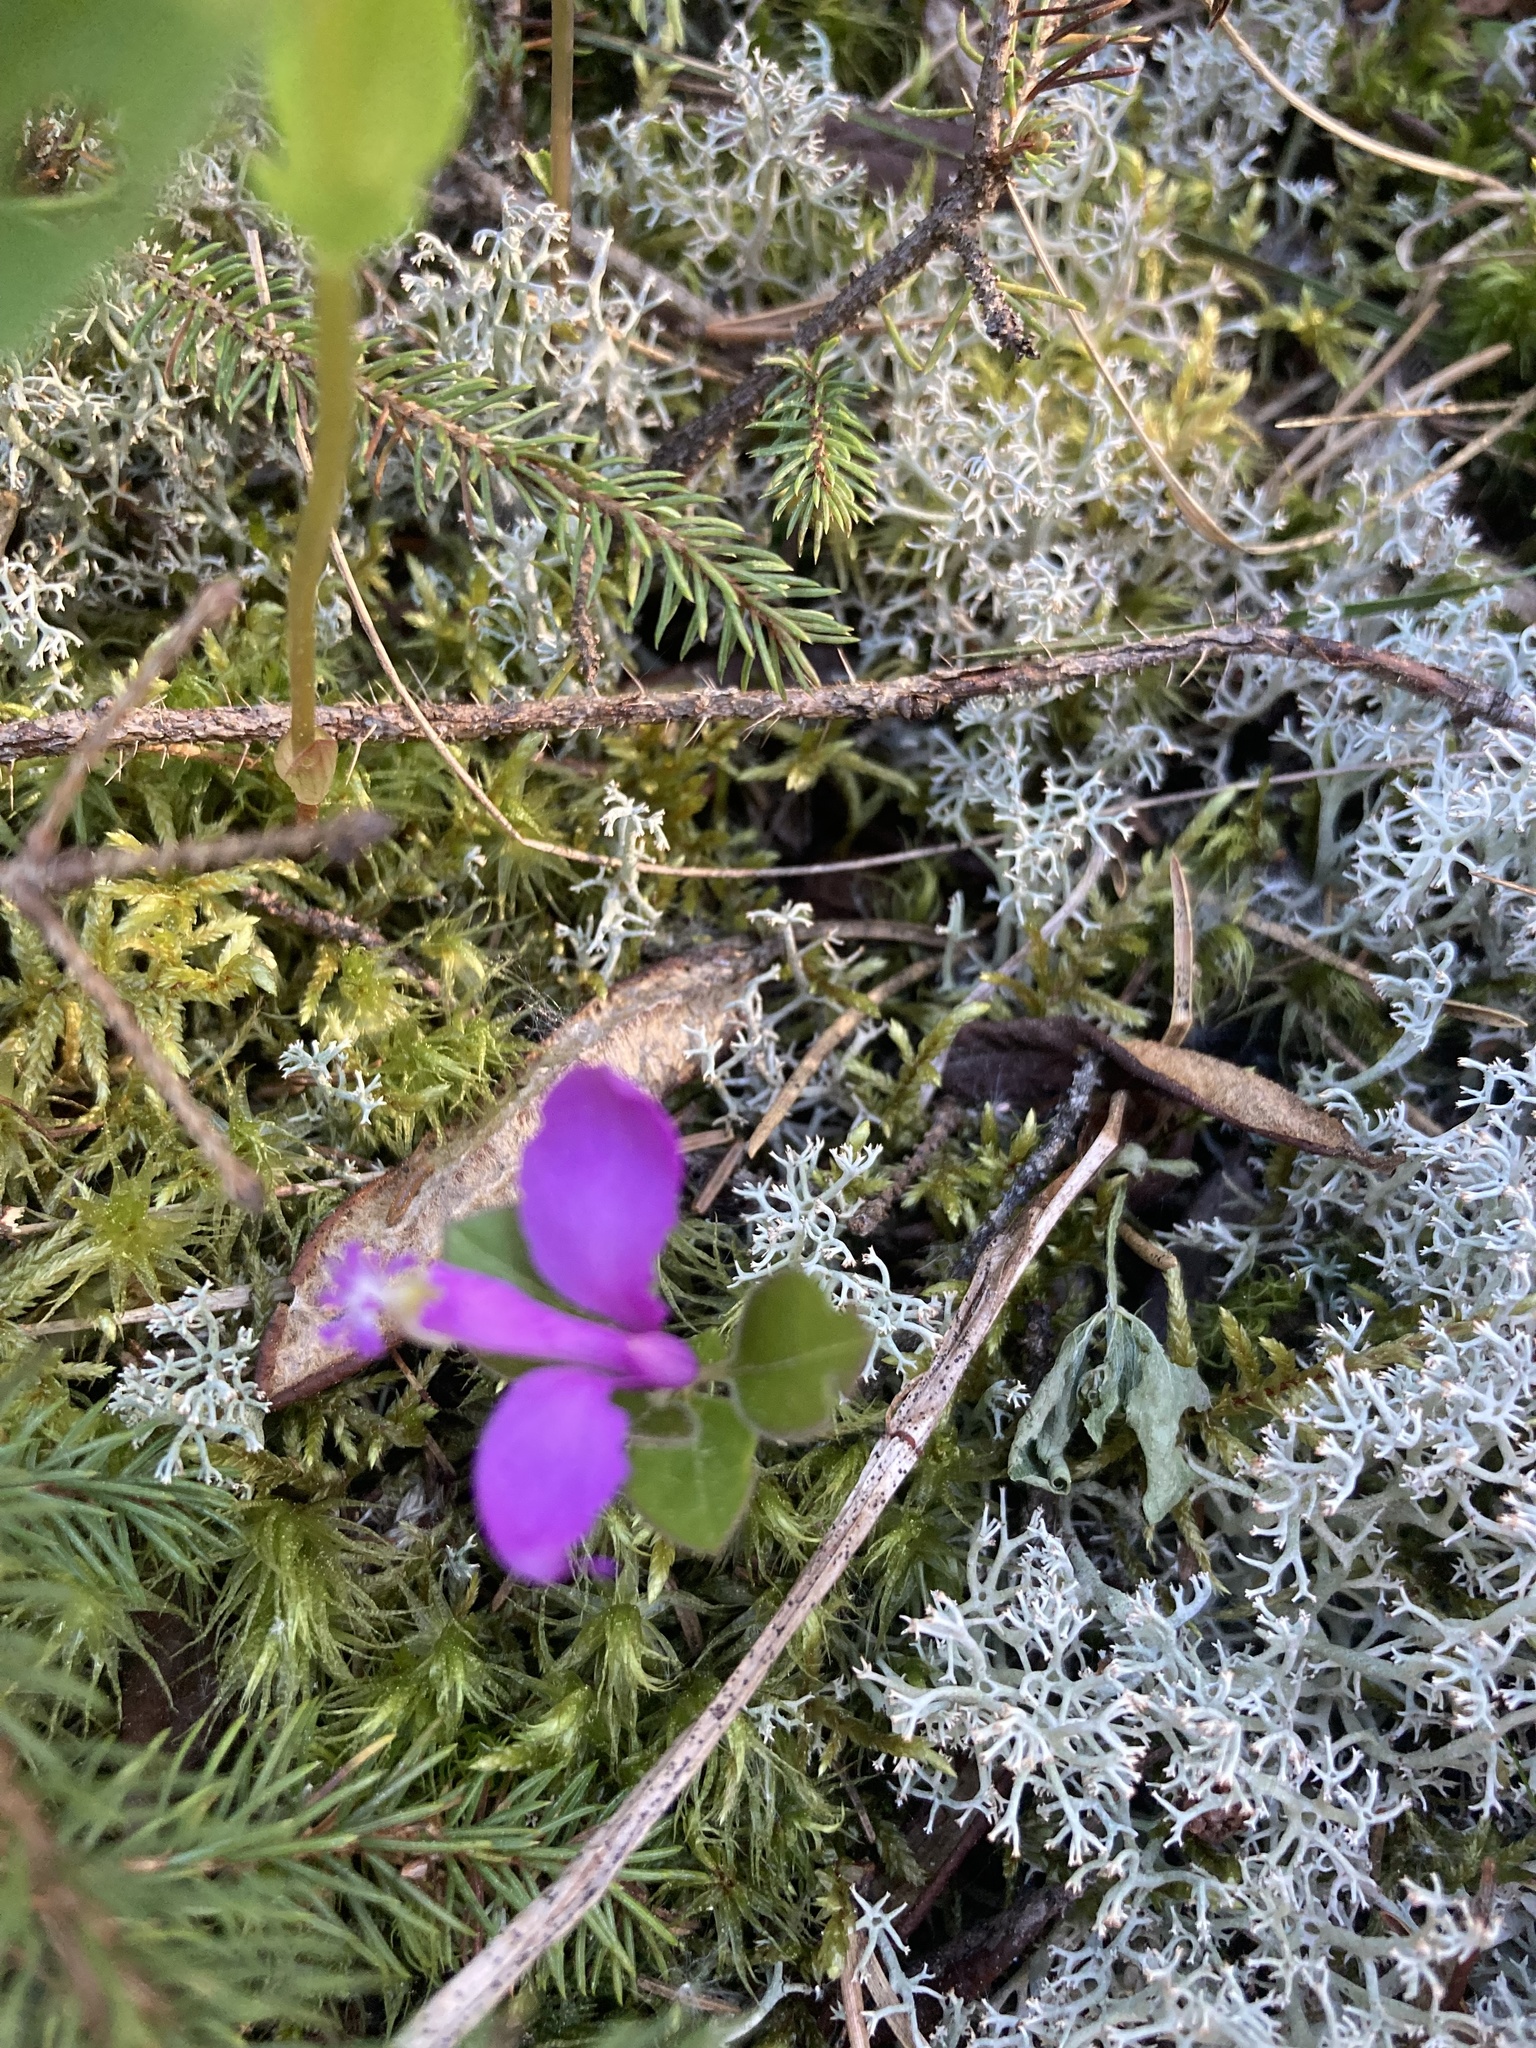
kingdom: Plantae
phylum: Tracheophyta
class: Magnoliopsida
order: Fabales
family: Polygalaceae
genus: Polygaloides
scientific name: Polygaloides paucifolia
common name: Bird-on-the-wing
